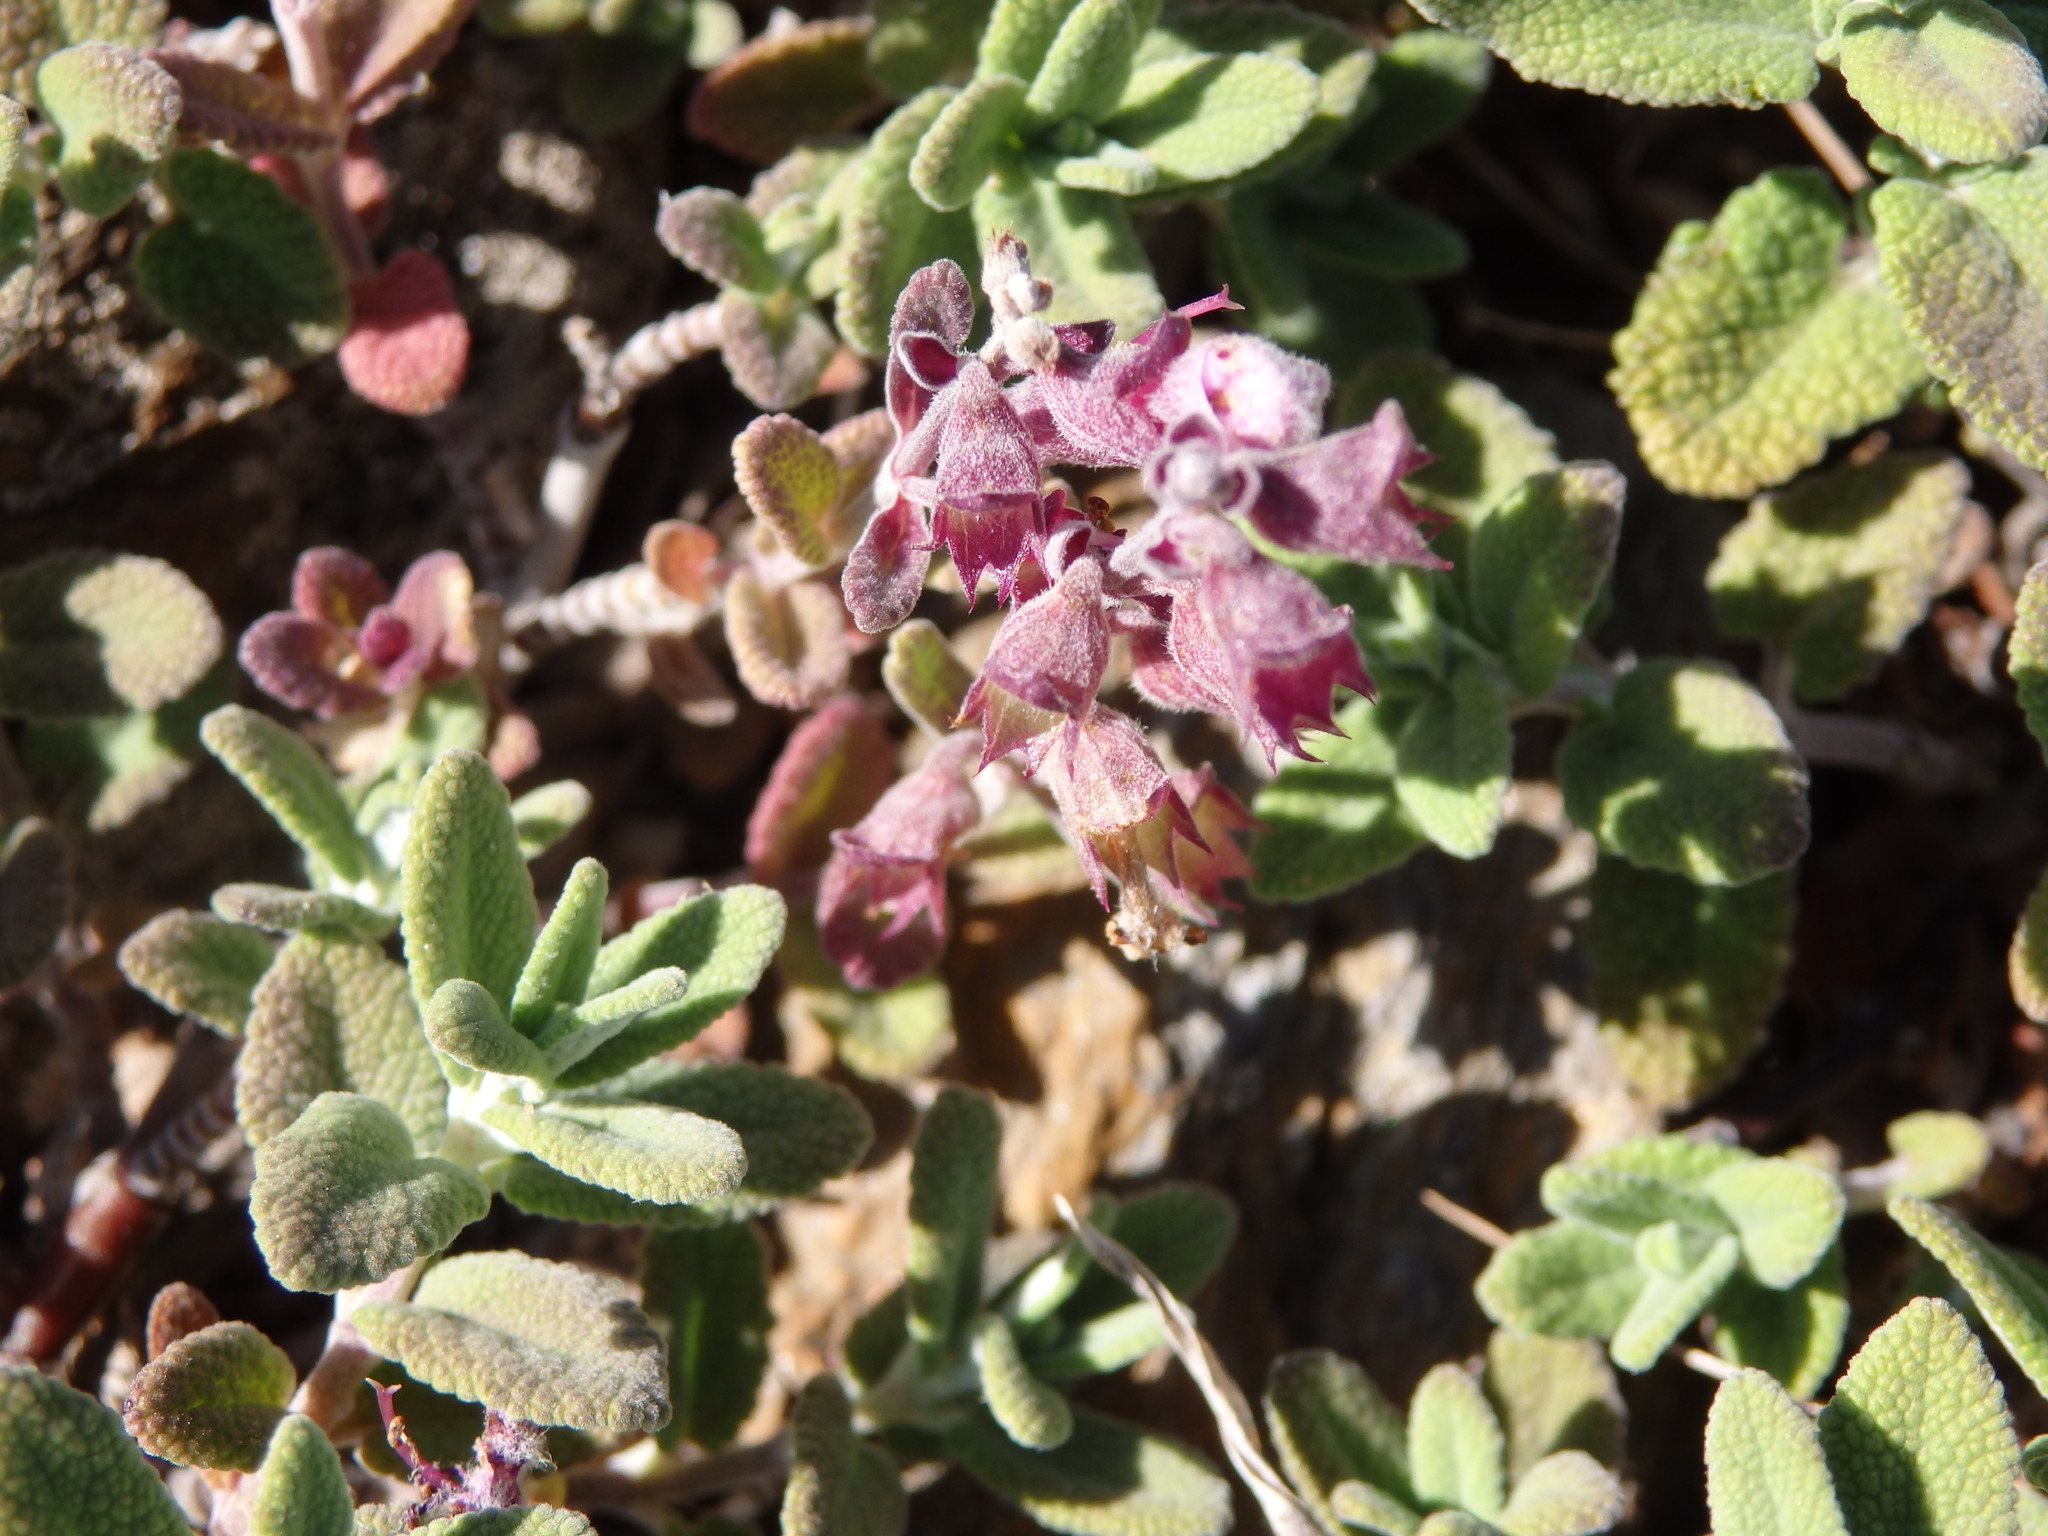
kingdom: Plantae
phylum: Tracheophyta
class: Magnoliopsida
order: Lamiales
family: Lamiaceae
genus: Teucrium
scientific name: Teucrium salviastrum
